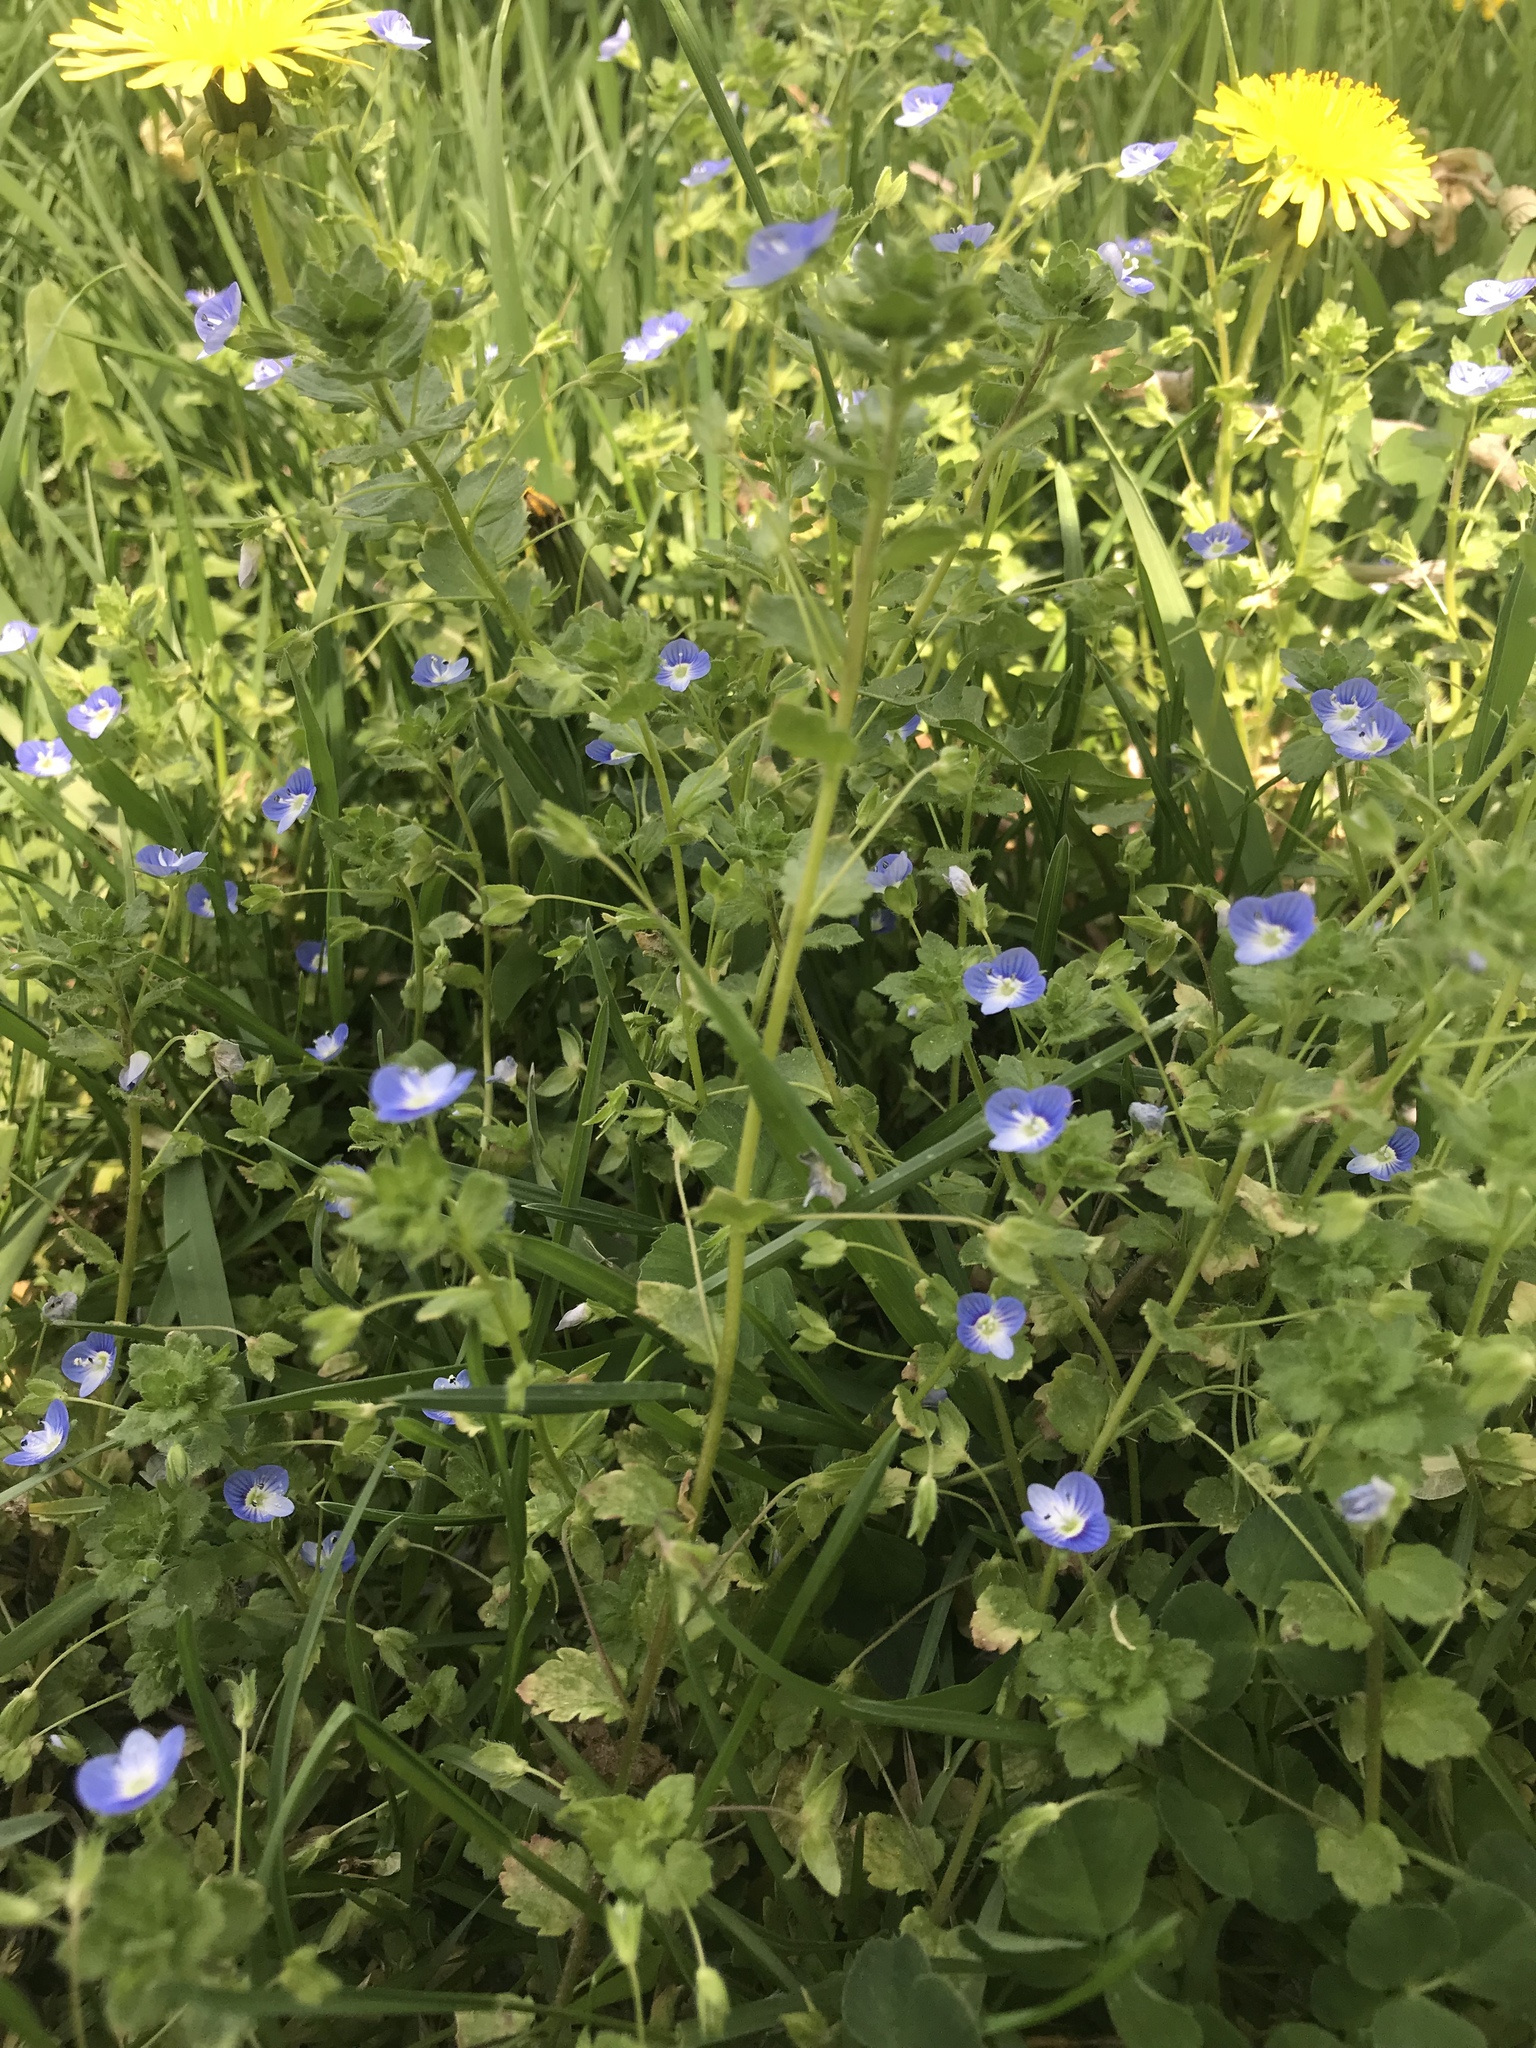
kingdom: Plantae
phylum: Tracheophyta
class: Magnoliopsida
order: Lamiales
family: Plantaginaceae
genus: Veronica
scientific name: Veronica persica
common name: Common field-speedwell
